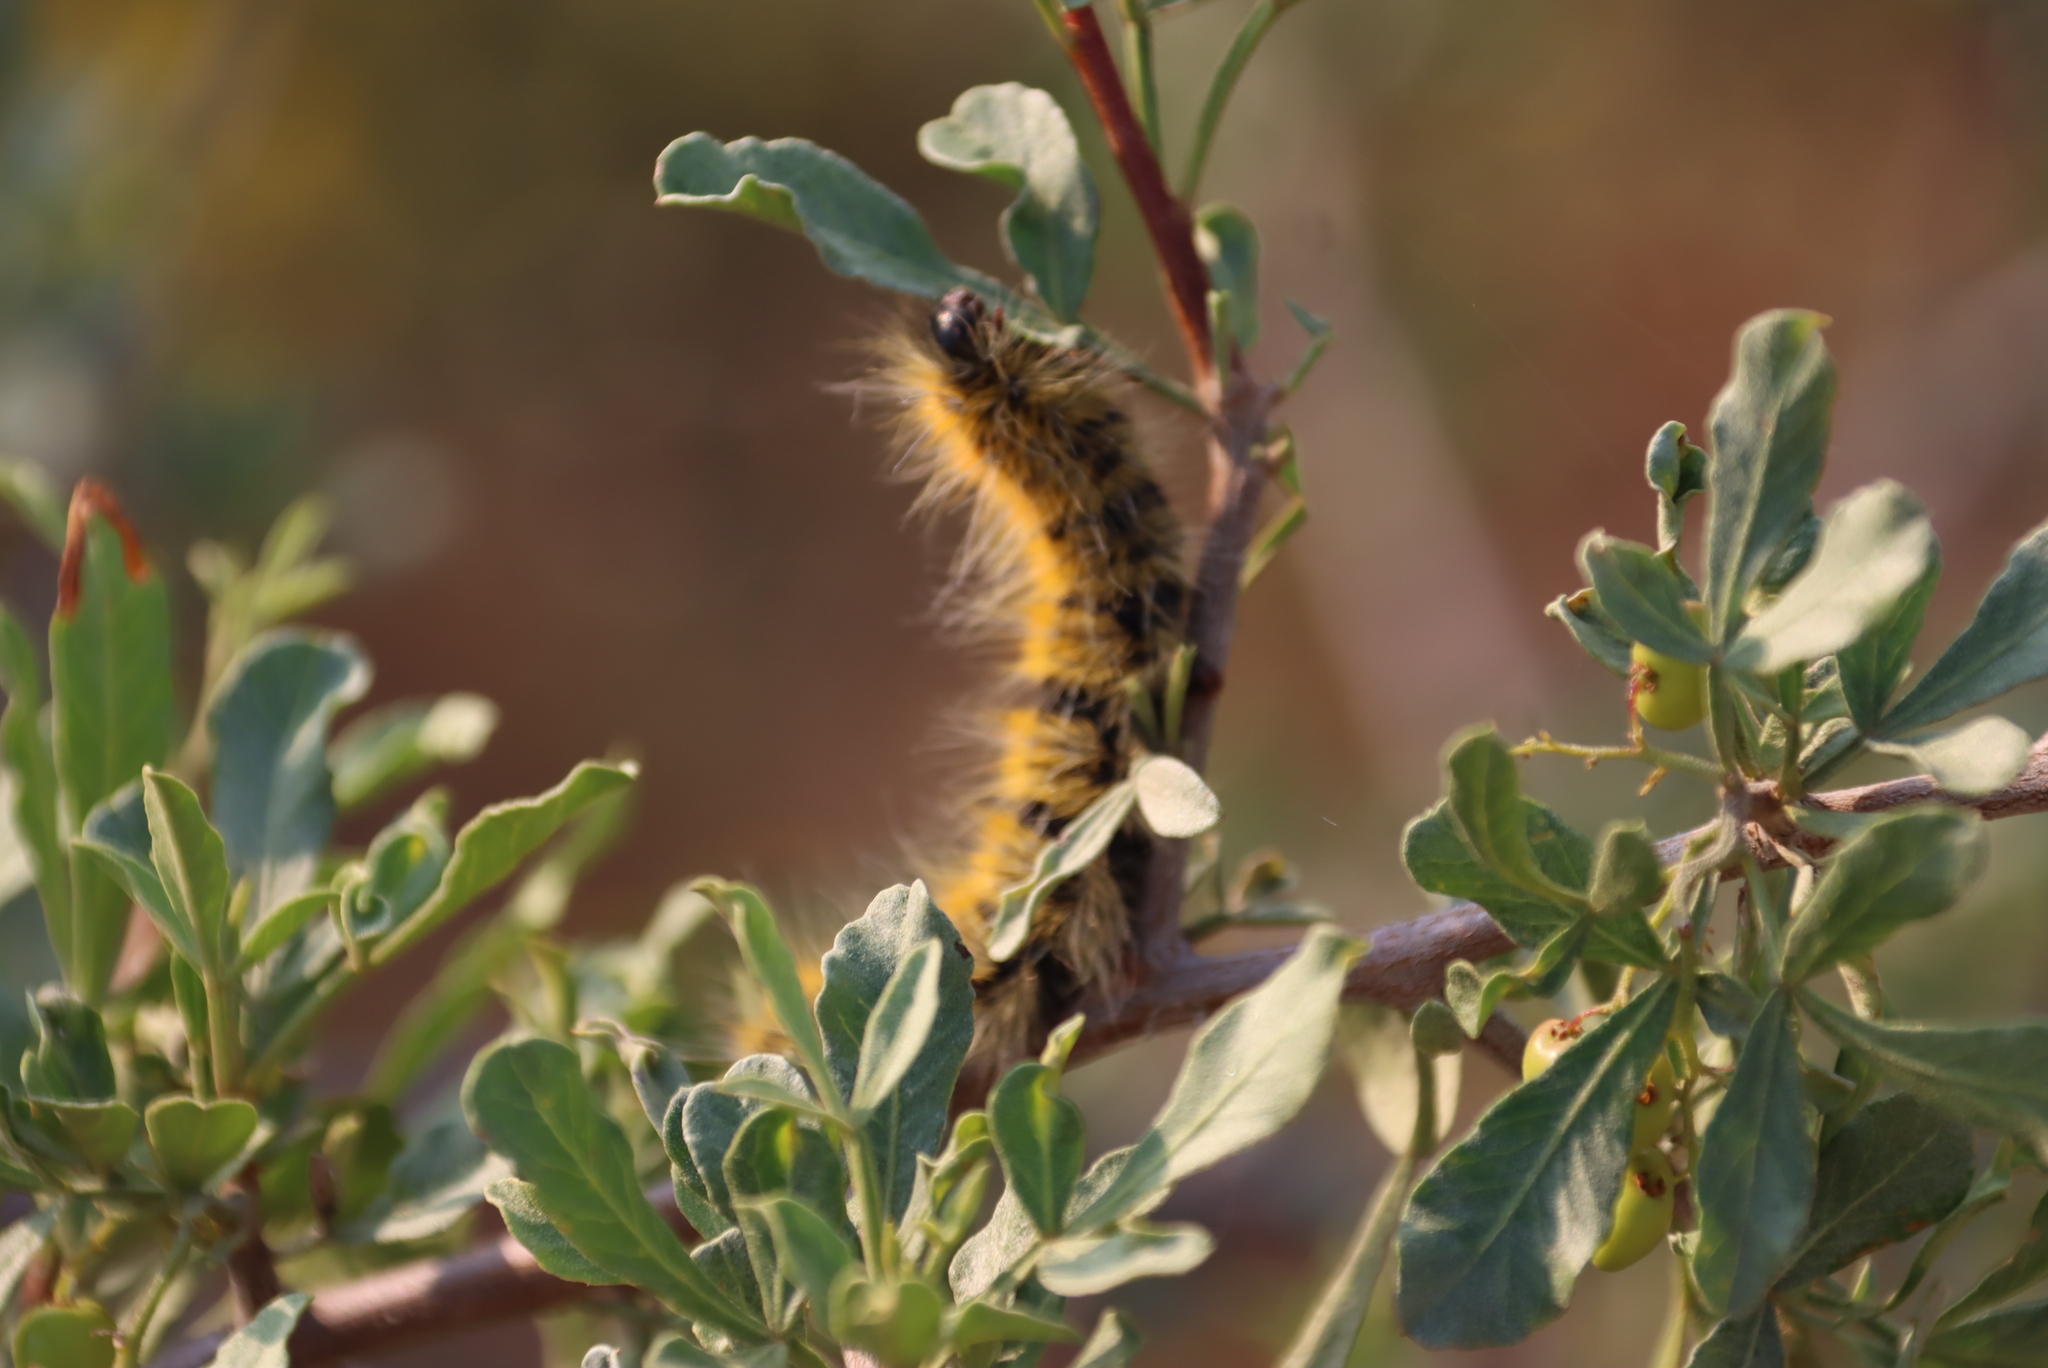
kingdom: Animalia
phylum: Arthropoda
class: Insecta
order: Lepidoptera
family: Lasiocampidae
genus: Bombycomorpha
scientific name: Bombycomorpha dukei
